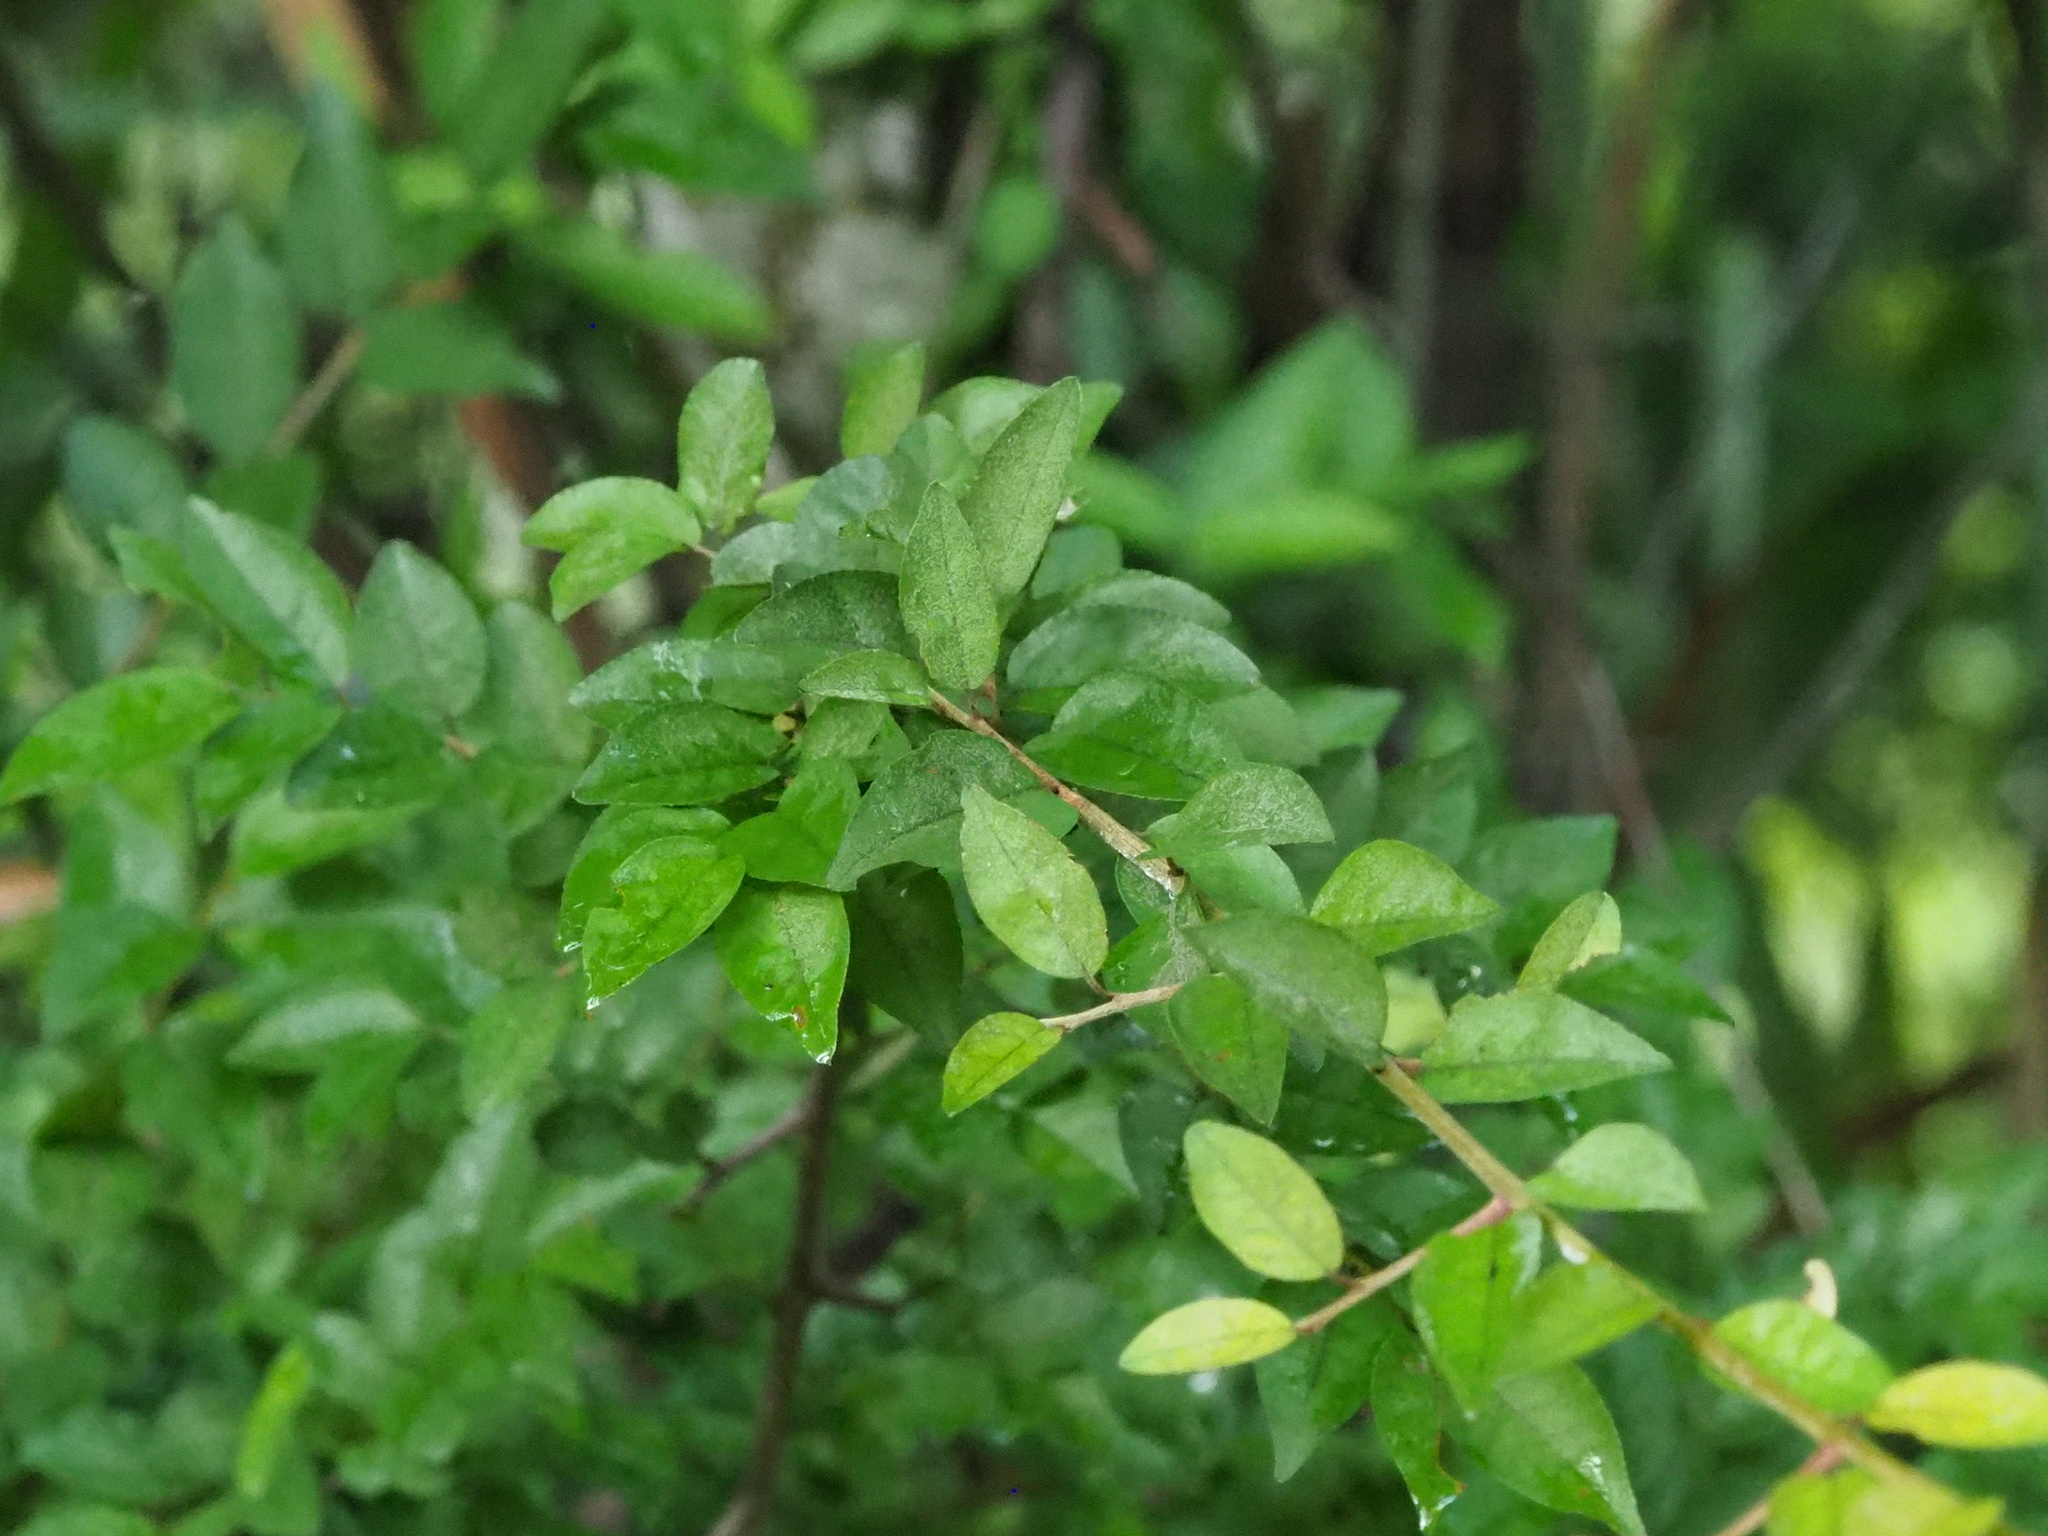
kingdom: Plantae
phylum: Tracheophyta
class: Magnoliopsida
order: Rosales
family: Rhamnaceae
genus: Sageretia
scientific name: Sageretia thea
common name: Pauper's-tea
